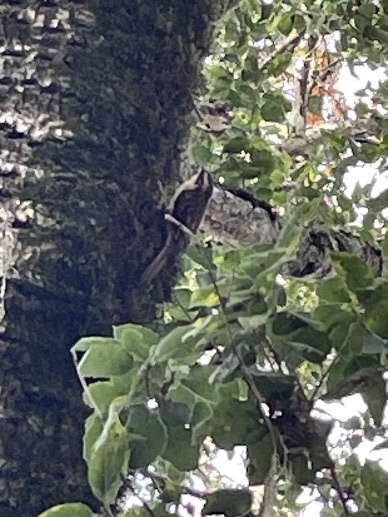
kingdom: Animalia
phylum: Chordata
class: Aves
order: Passeriformes
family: Certhiidae
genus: Certhia
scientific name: Certhia americana
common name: Brown creeper
